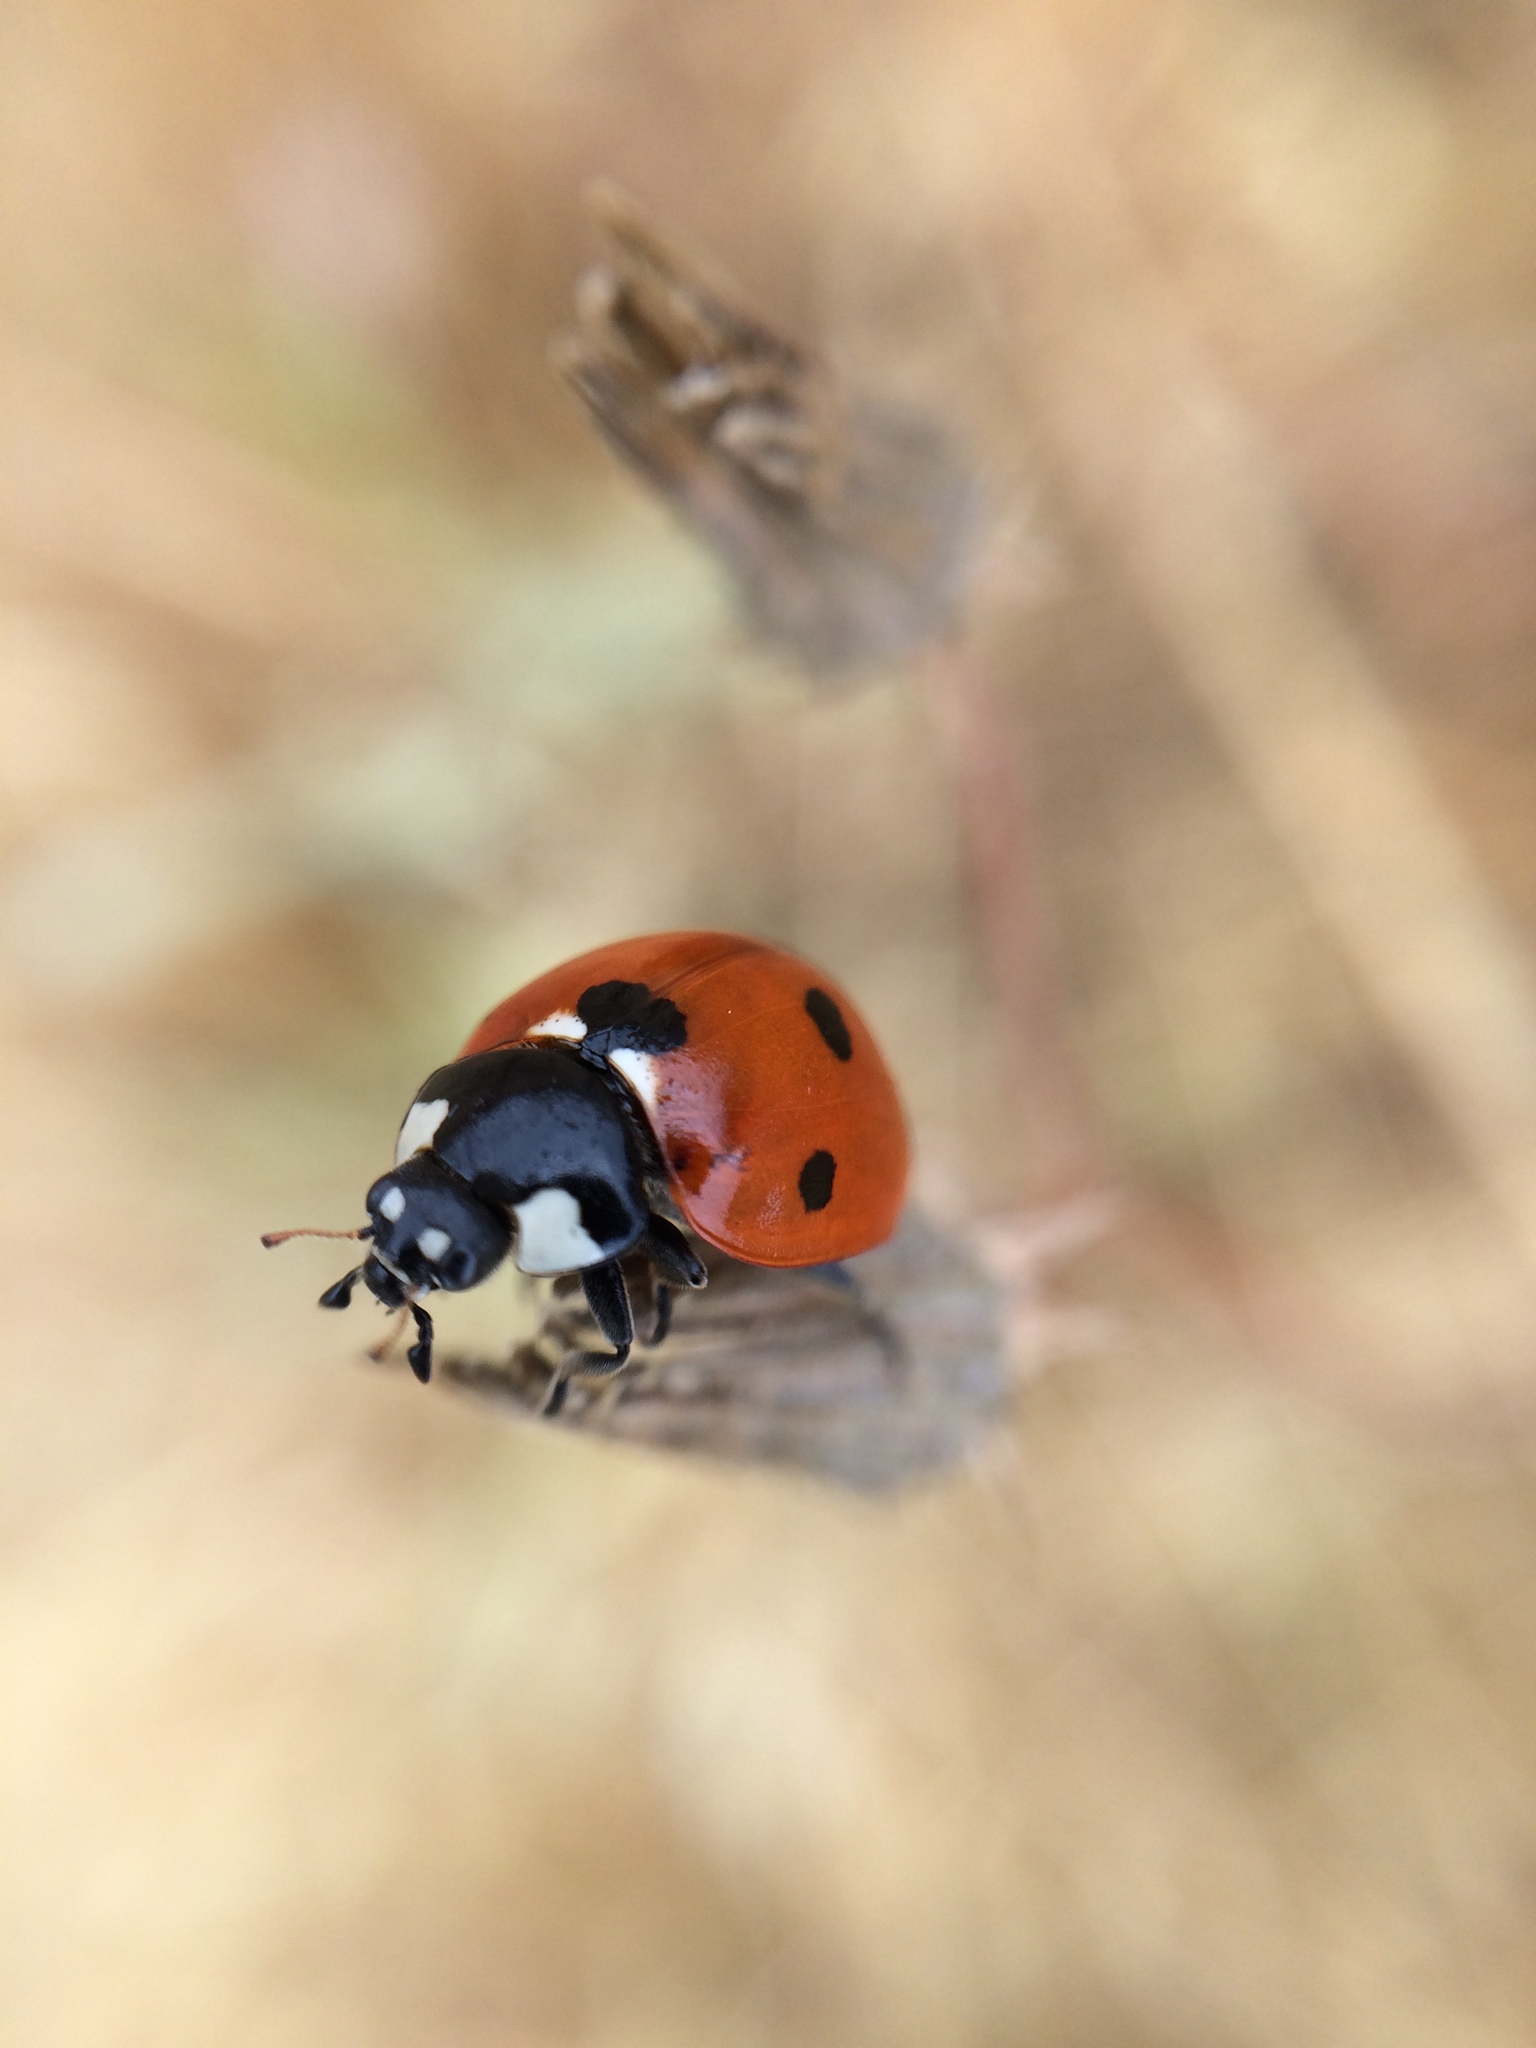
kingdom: Animalia
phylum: Arthropoda
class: Insecta
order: Coleoptera
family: Coccinellidae
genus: Coccinella
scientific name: Coccinella septempunctata
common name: Sevenspotted lady beetle
